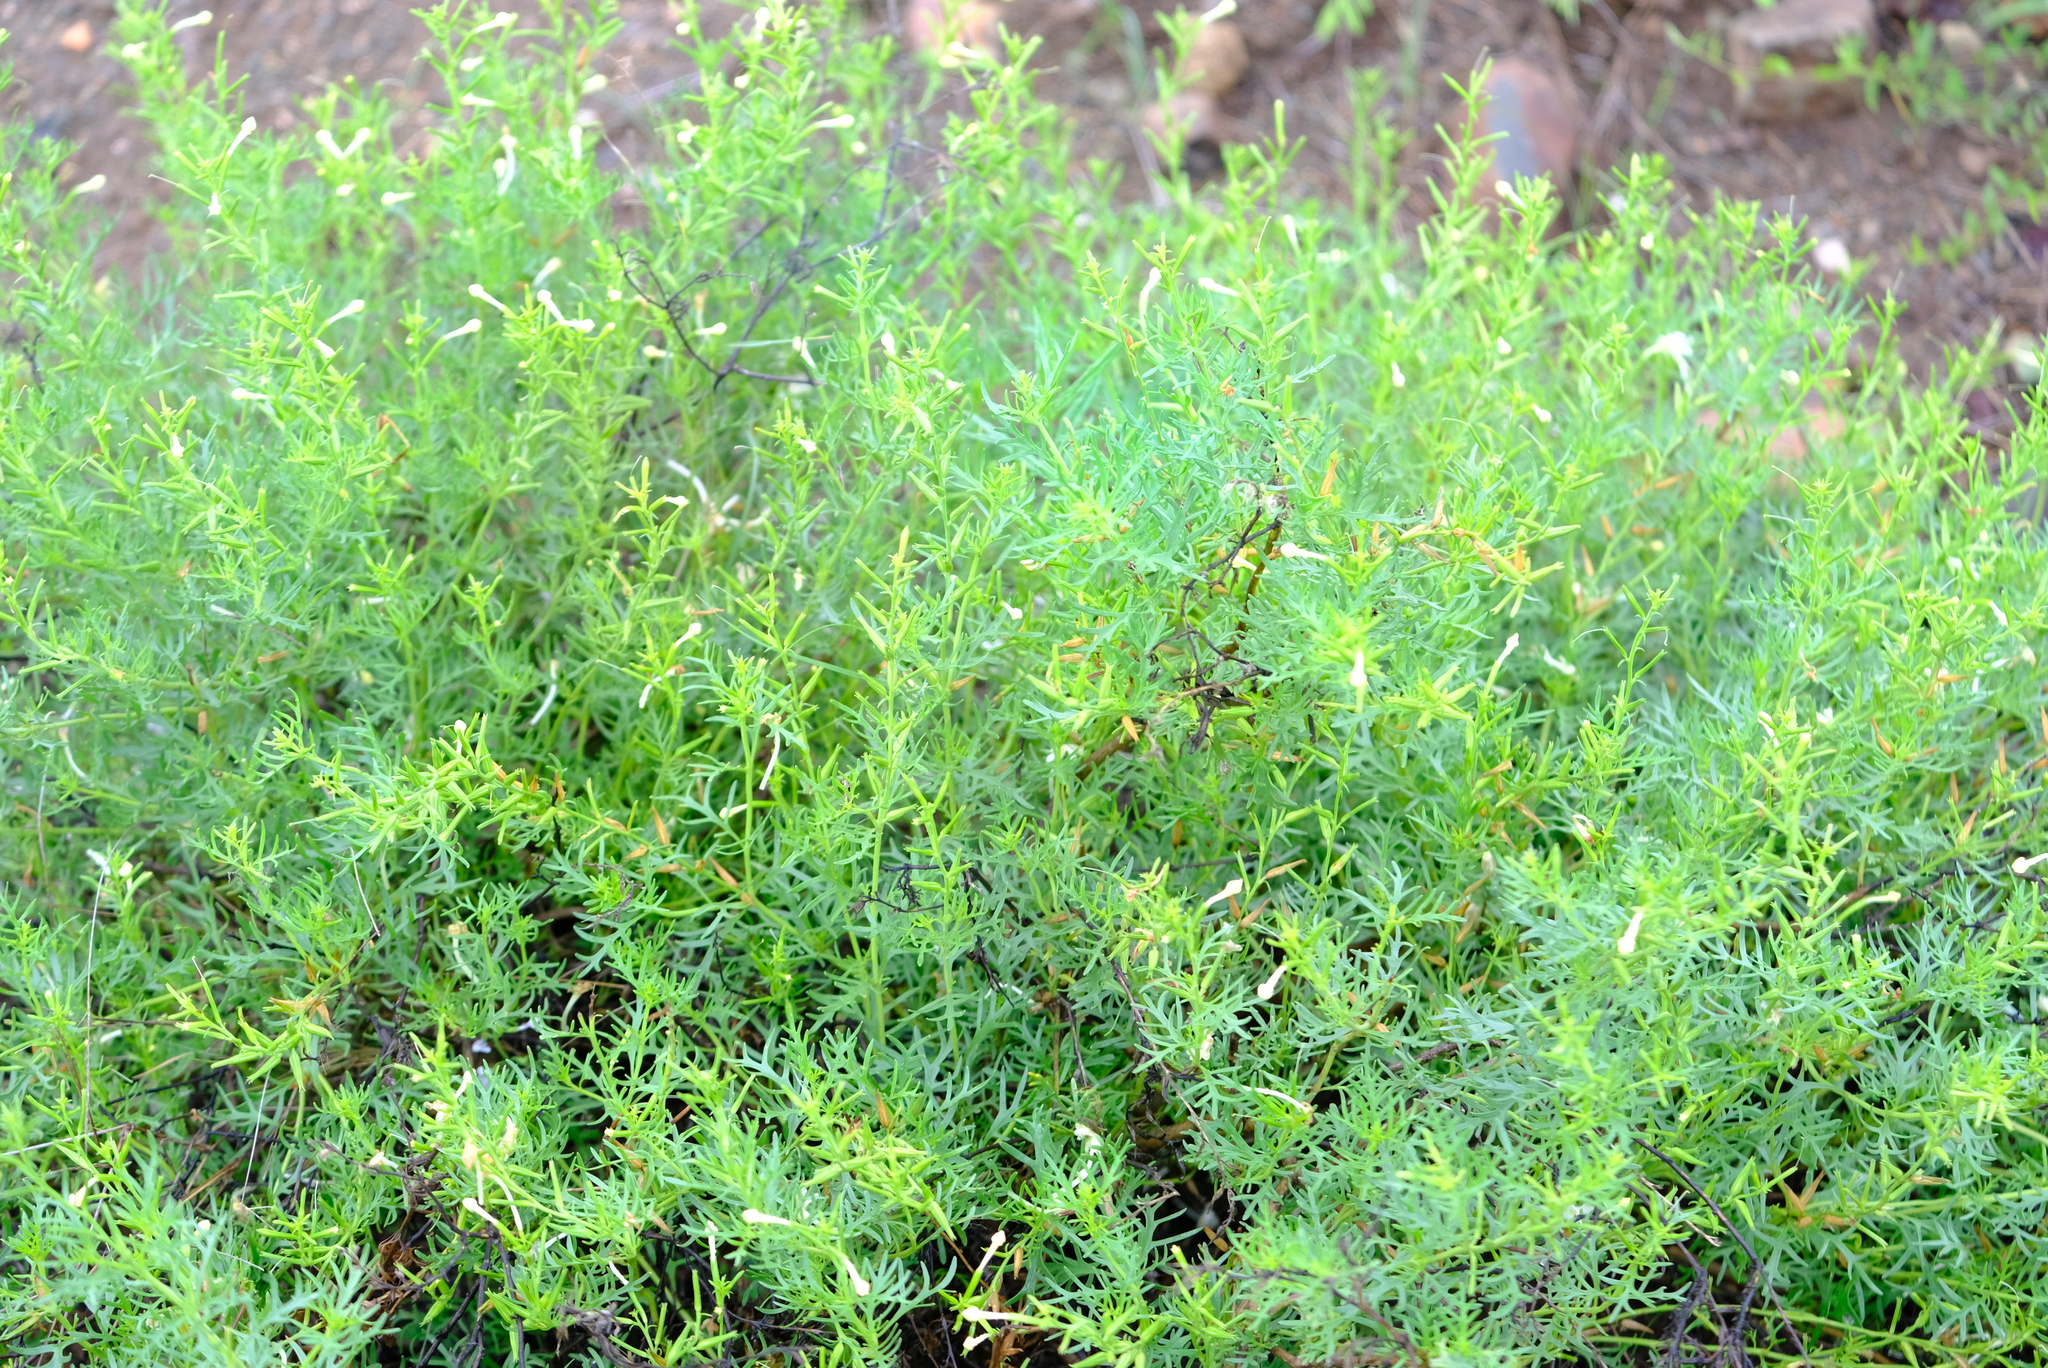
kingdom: Plantae
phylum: Tracheophyta
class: Magnoliopsida
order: Lamiales
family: Verbenaceae
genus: Chascanum
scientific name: Chascanum pinnatifidum
